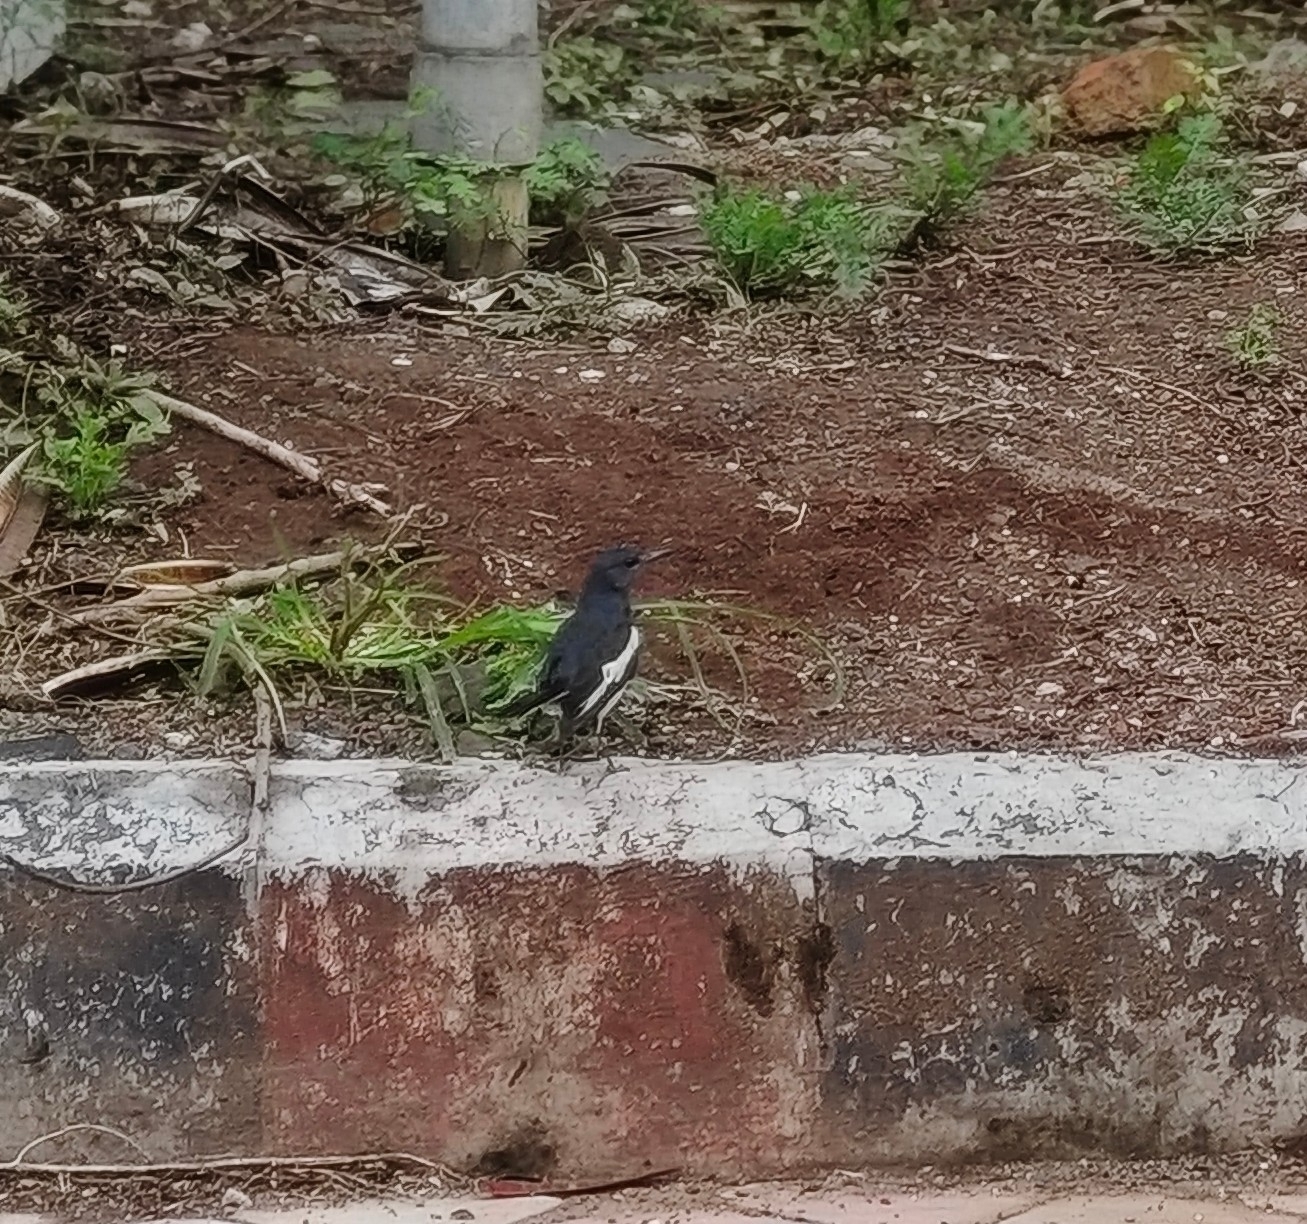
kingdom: Animalia
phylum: Chordata
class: Aves
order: Passeriformes
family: Muscicapidae
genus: Copsychus
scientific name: Copsychus saularis
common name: Oriental magpie-robin
